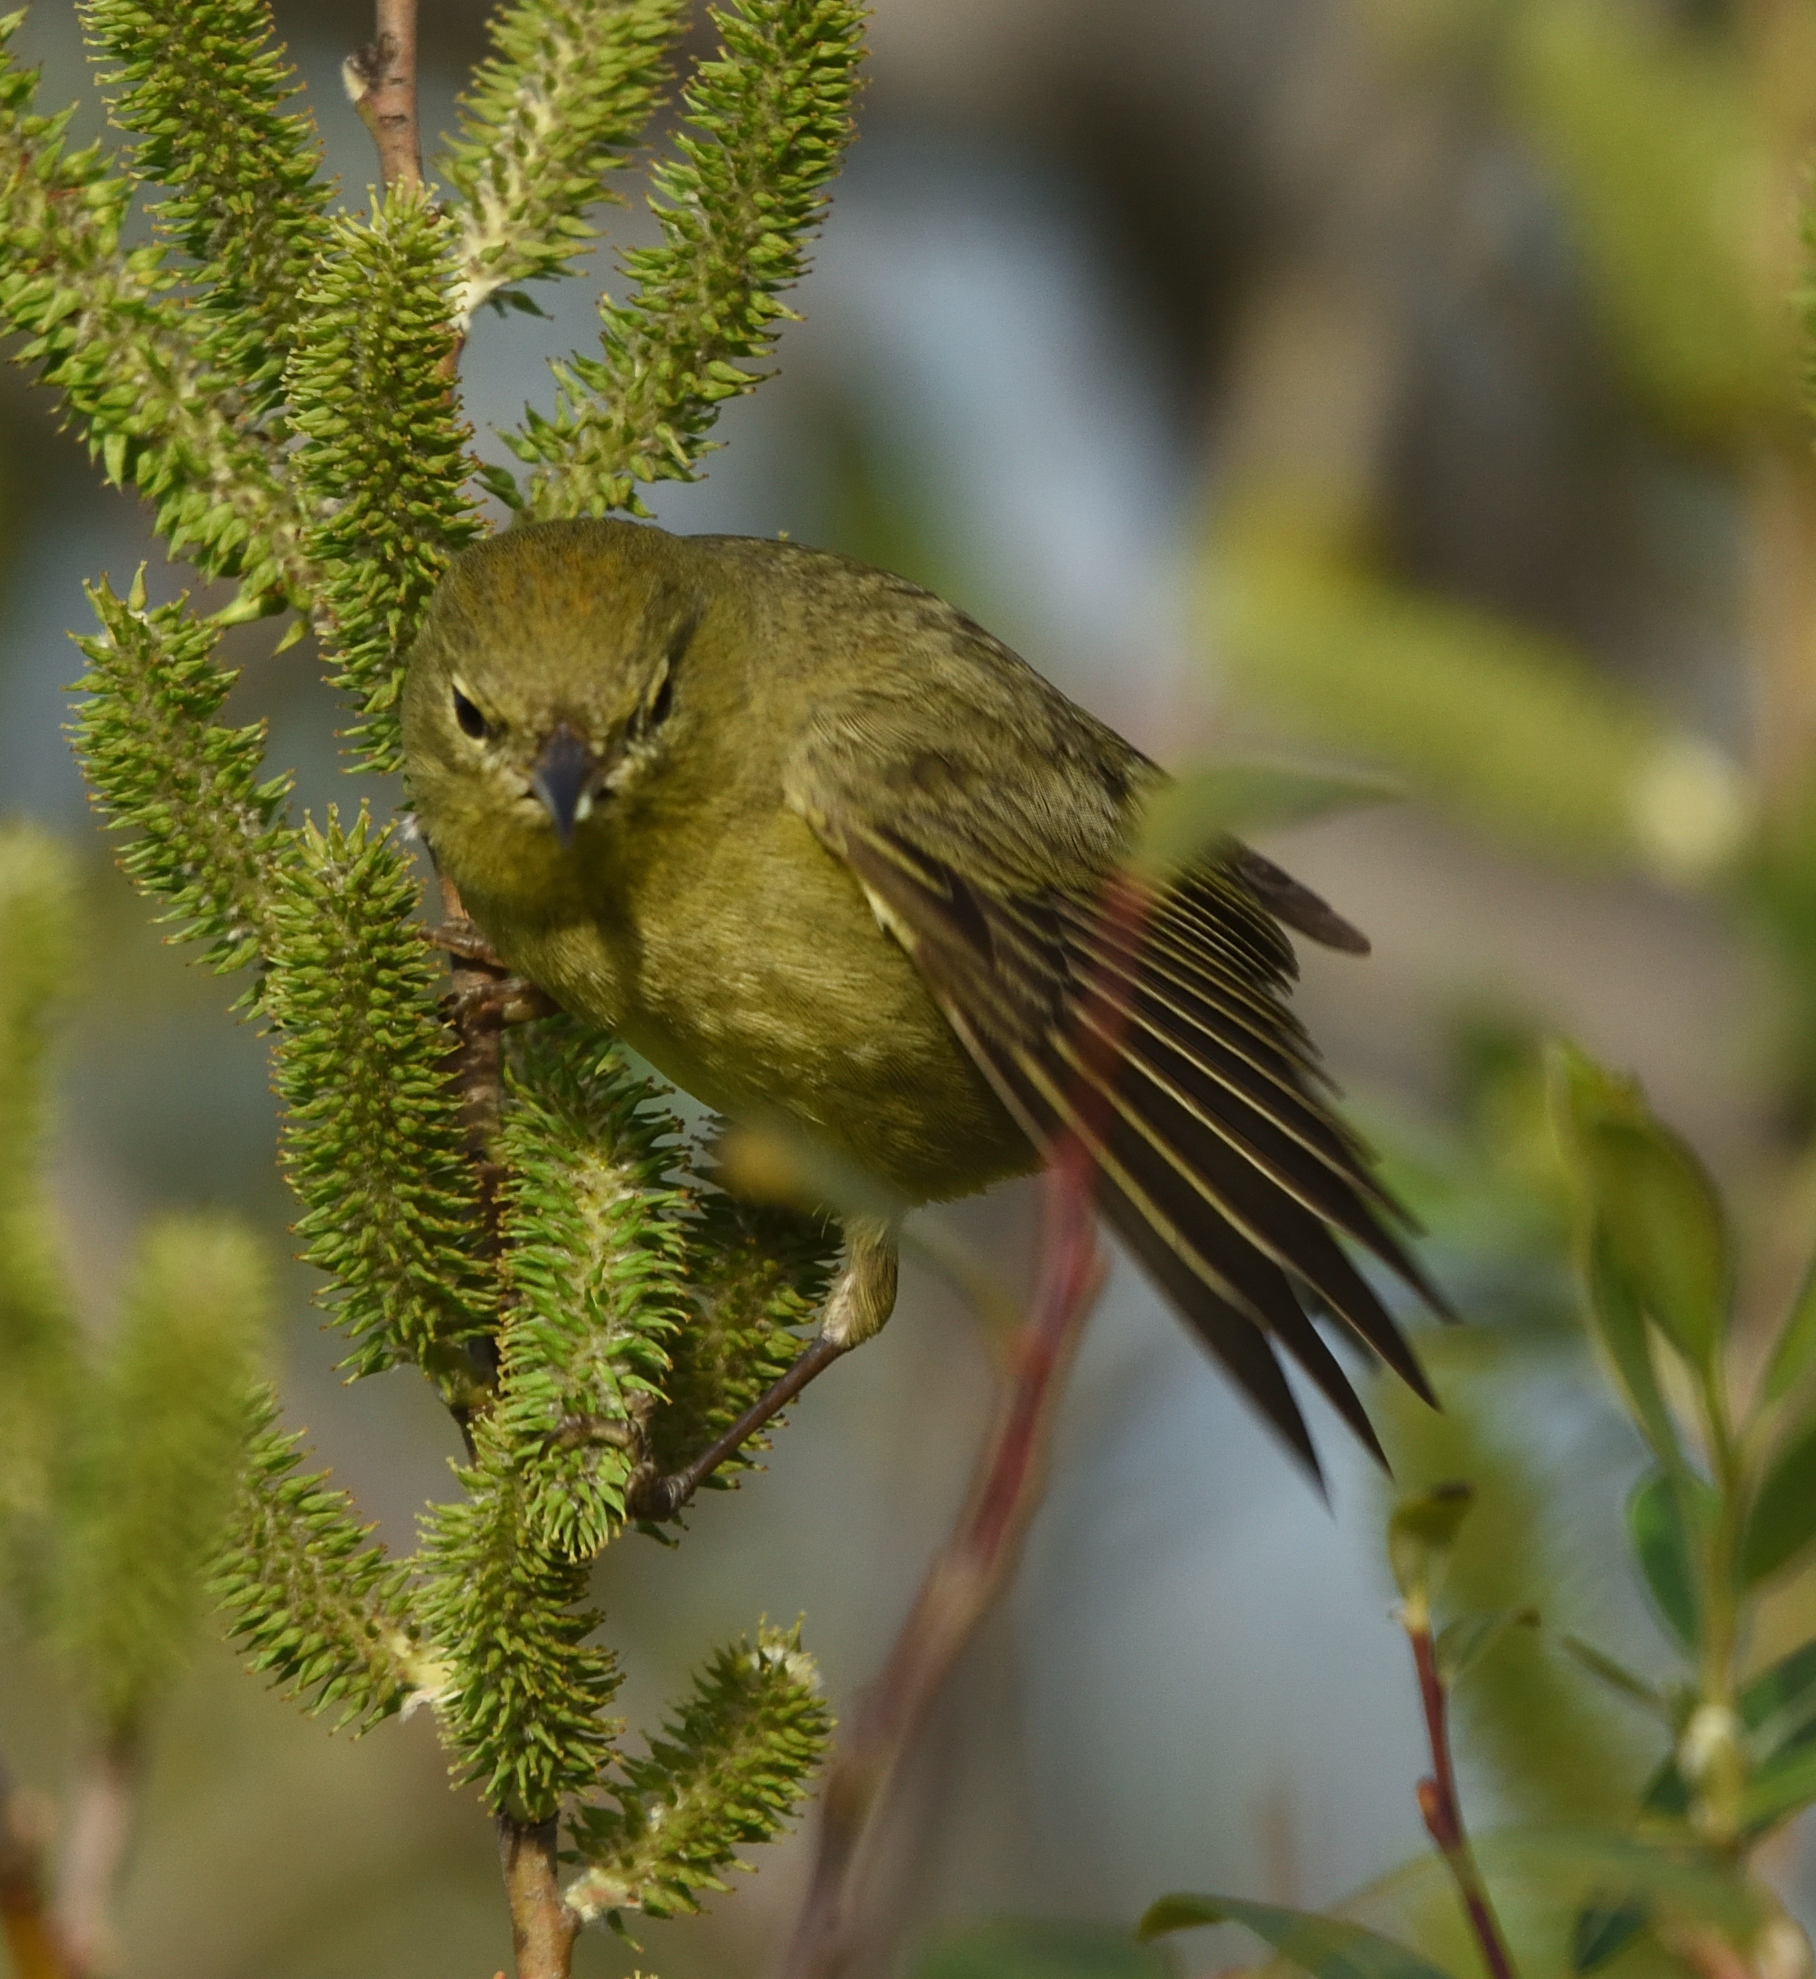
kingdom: Animalia
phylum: Chordata
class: Aves
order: Passeriformes
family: Parulidae
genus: Leiothlypis
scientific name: Leiothlypis celata
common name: Orange-crowned warbler
